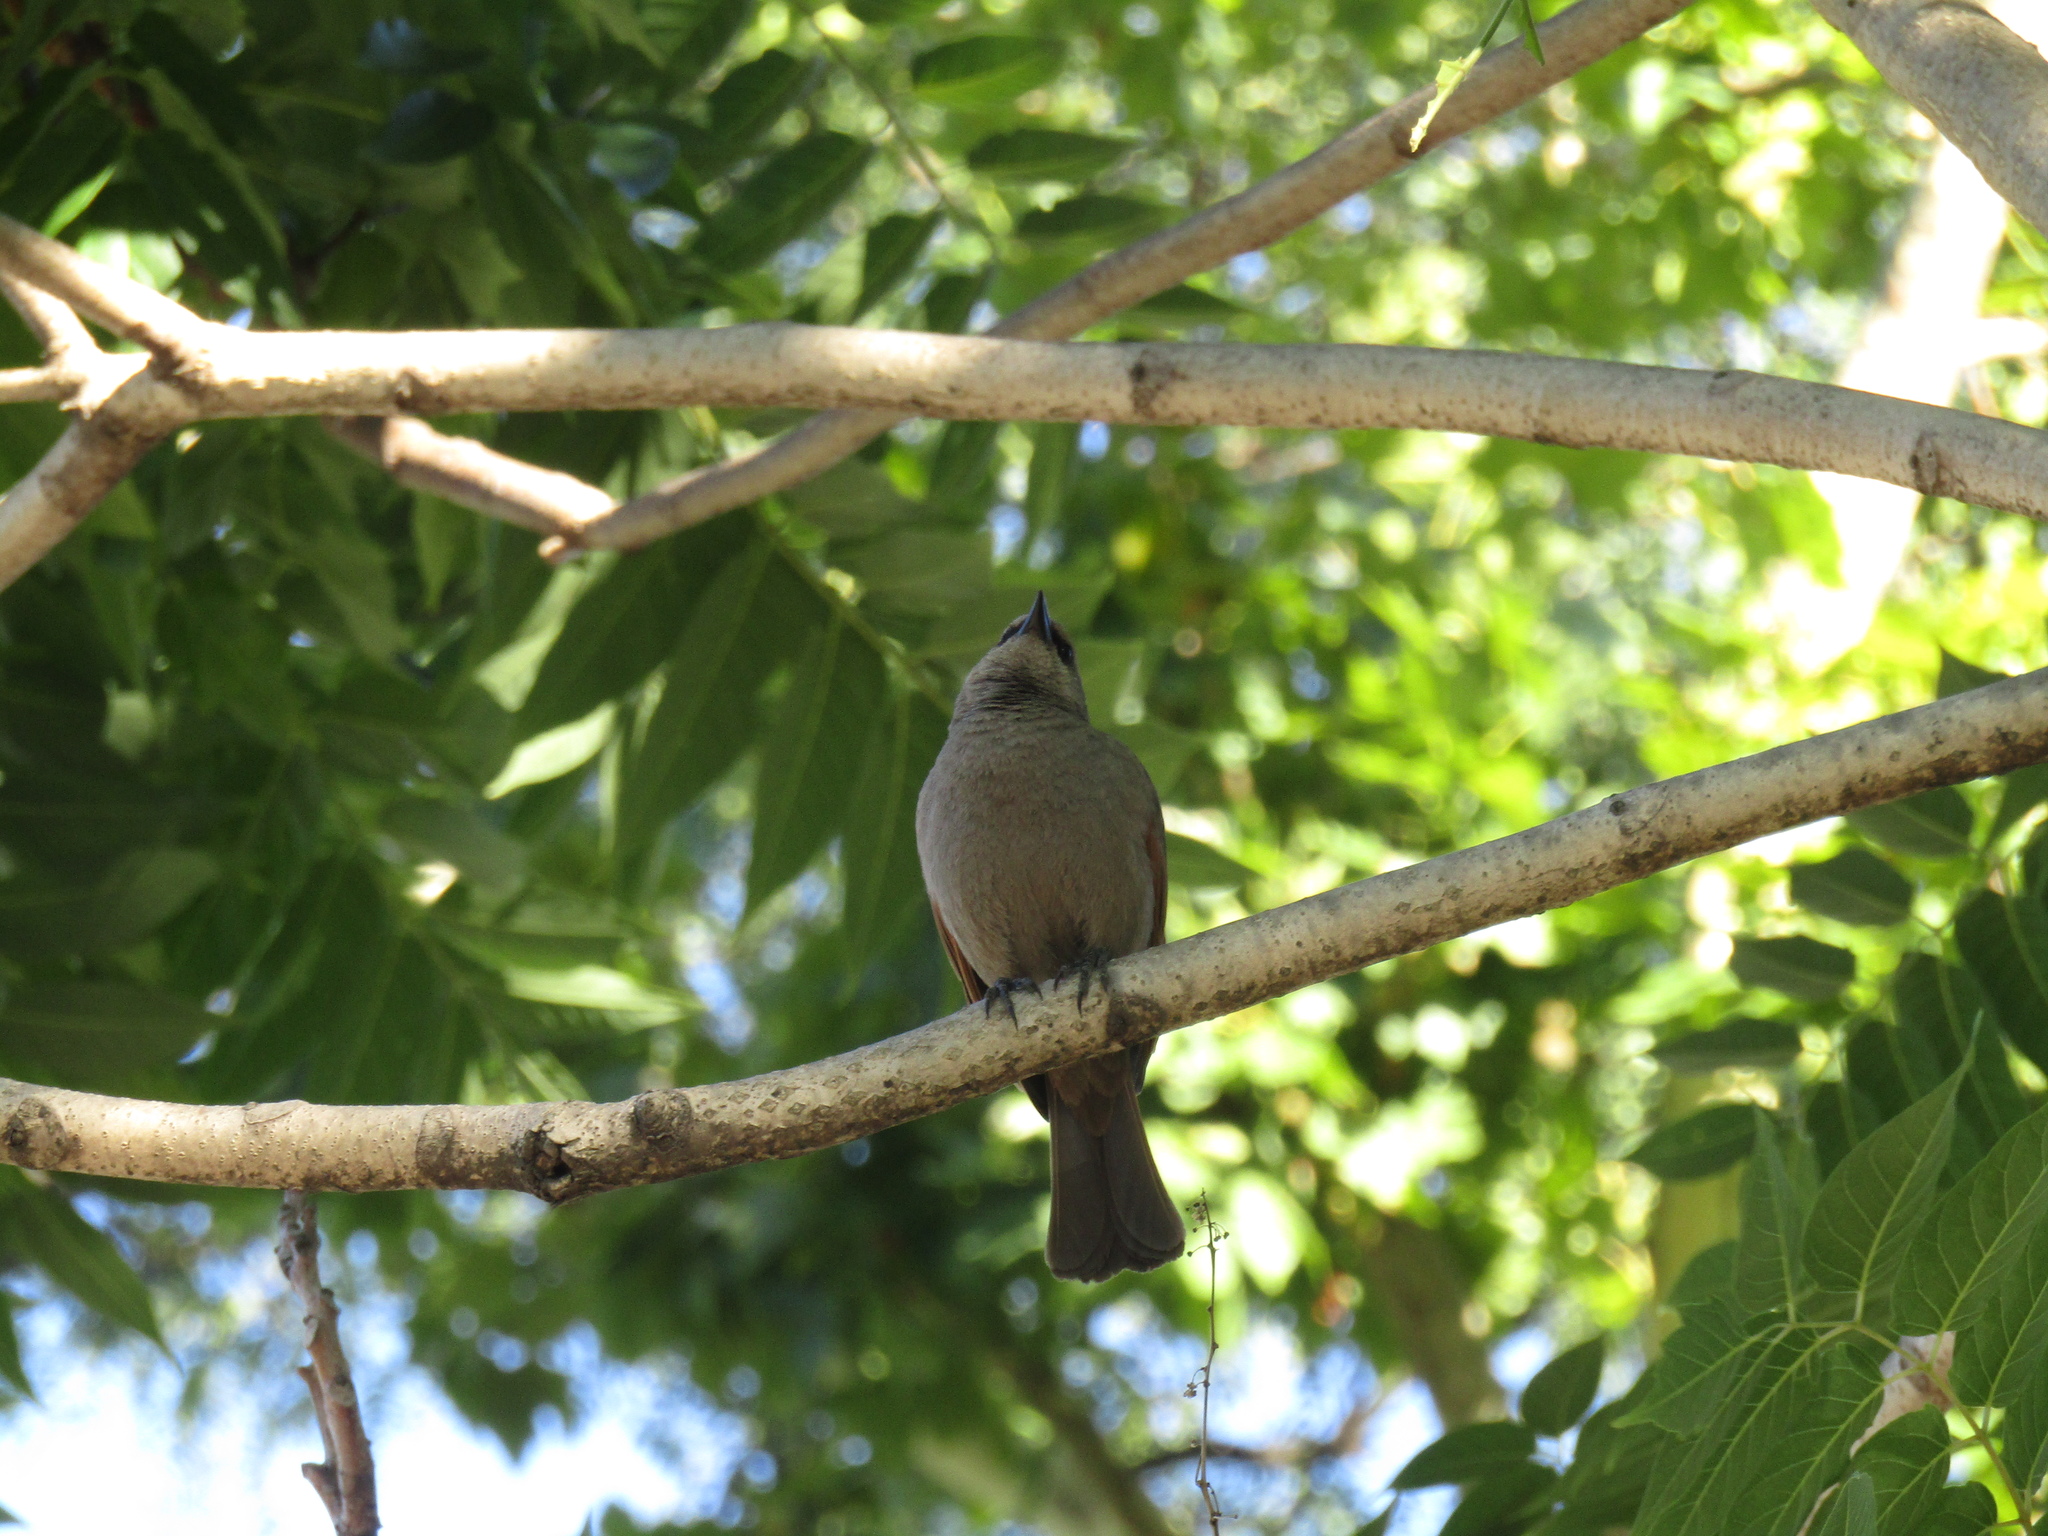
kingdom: Animalia
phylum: Chordata
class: Aves
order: Passeriformes
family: Icteridae
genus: Agelaioides
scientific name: Agelaioides badius
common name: Baywing
